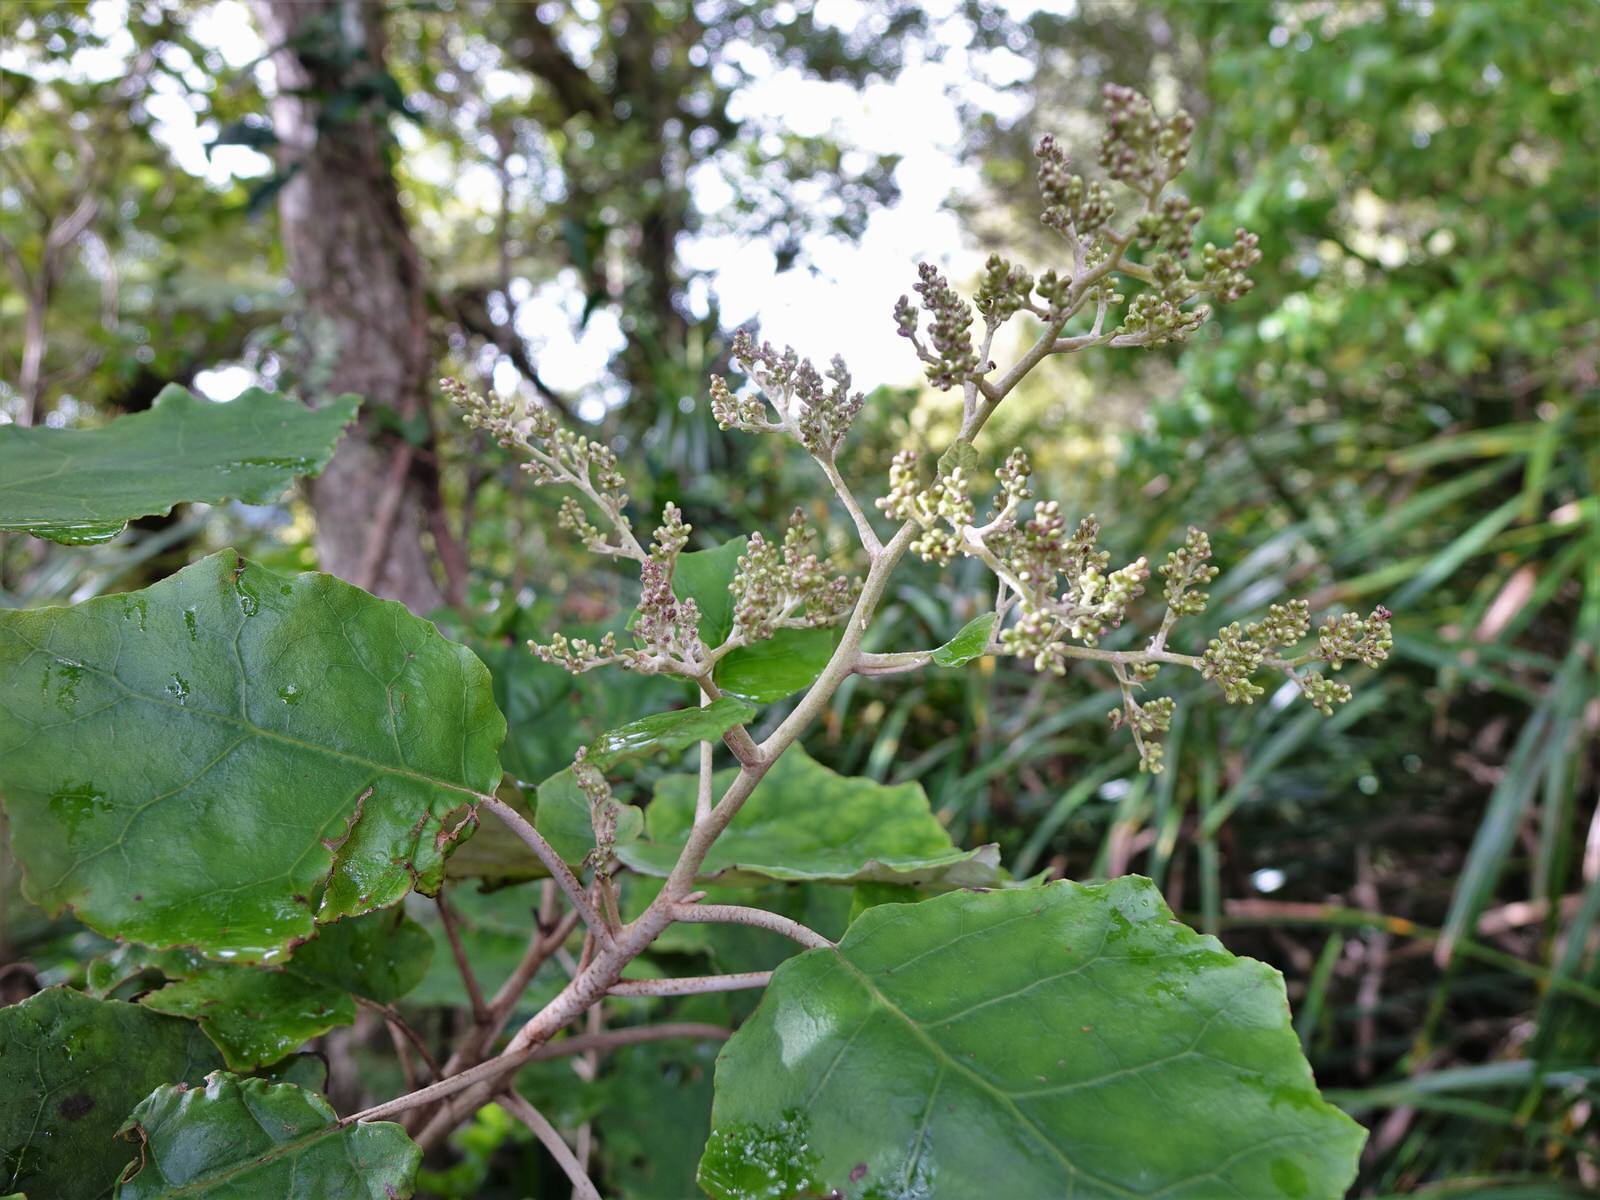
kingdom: Plantae
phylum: Tracheophyta
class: Magnoliopsida
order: Asterales
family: Asteraceae
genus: Brachyglottis
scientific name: Brachyglottis repanda
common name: Hedge ragwort
